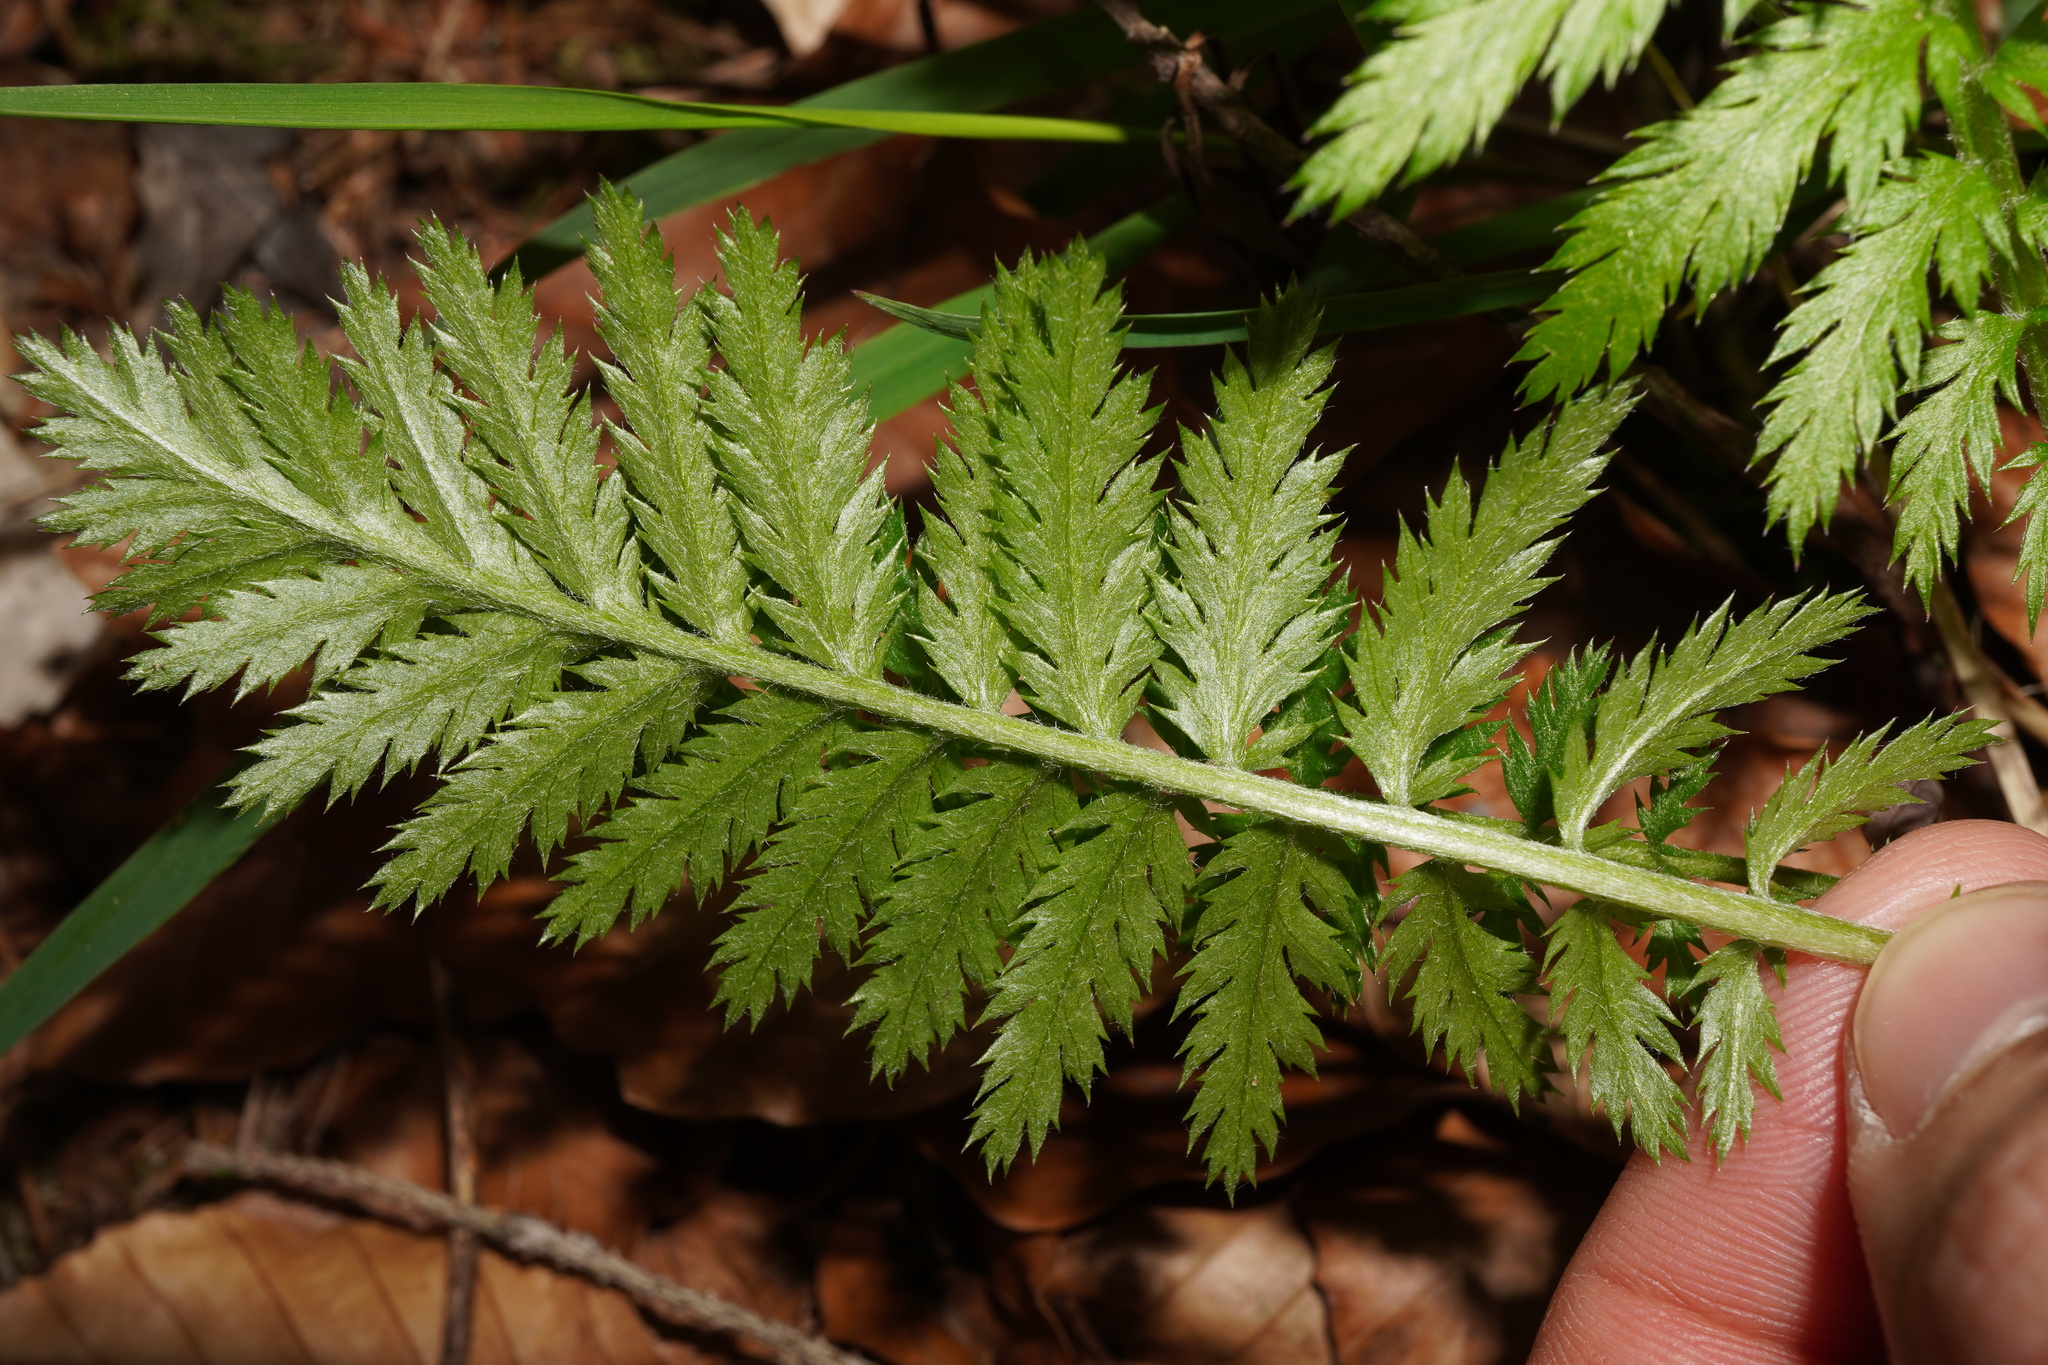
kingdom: Plantae
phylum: Tracheophyta
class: Magnoliopsida
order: Asterales
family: Asteraceae
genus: Tanacetum
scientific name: Tanacetum corymbosum
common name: Scentless feverfew
